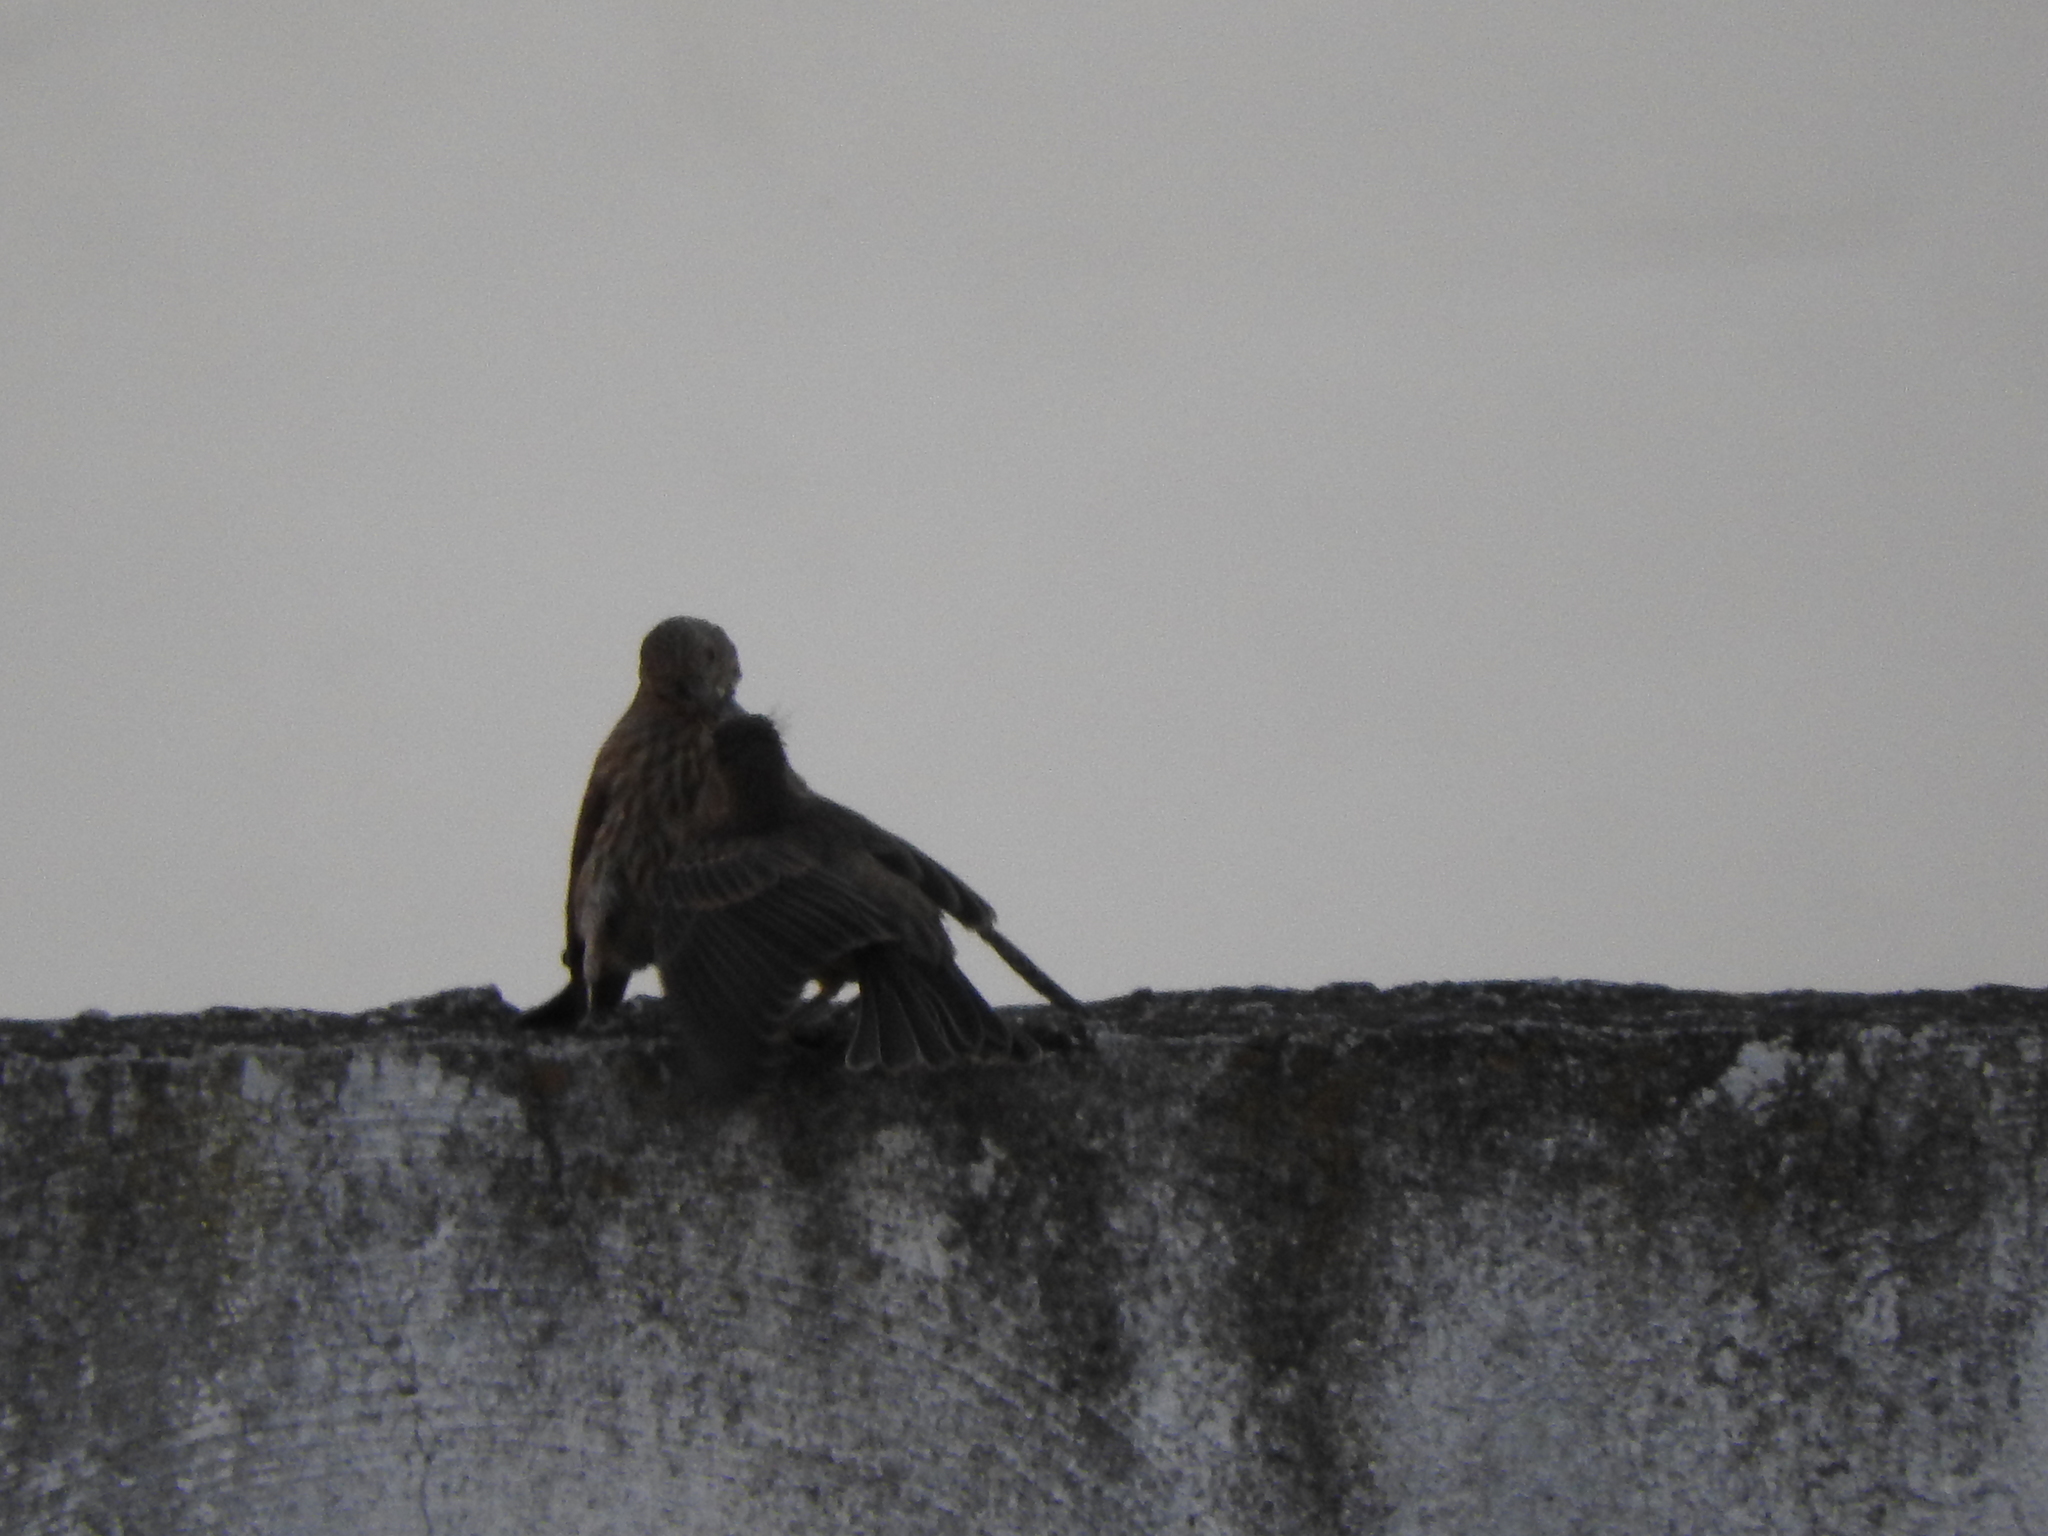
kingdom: Animalia
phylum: Chordata
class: Aves
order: Passeriformes
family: Fringillidae
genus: Haemorhous
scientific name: Haemorhous mexicanus
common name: House finch
